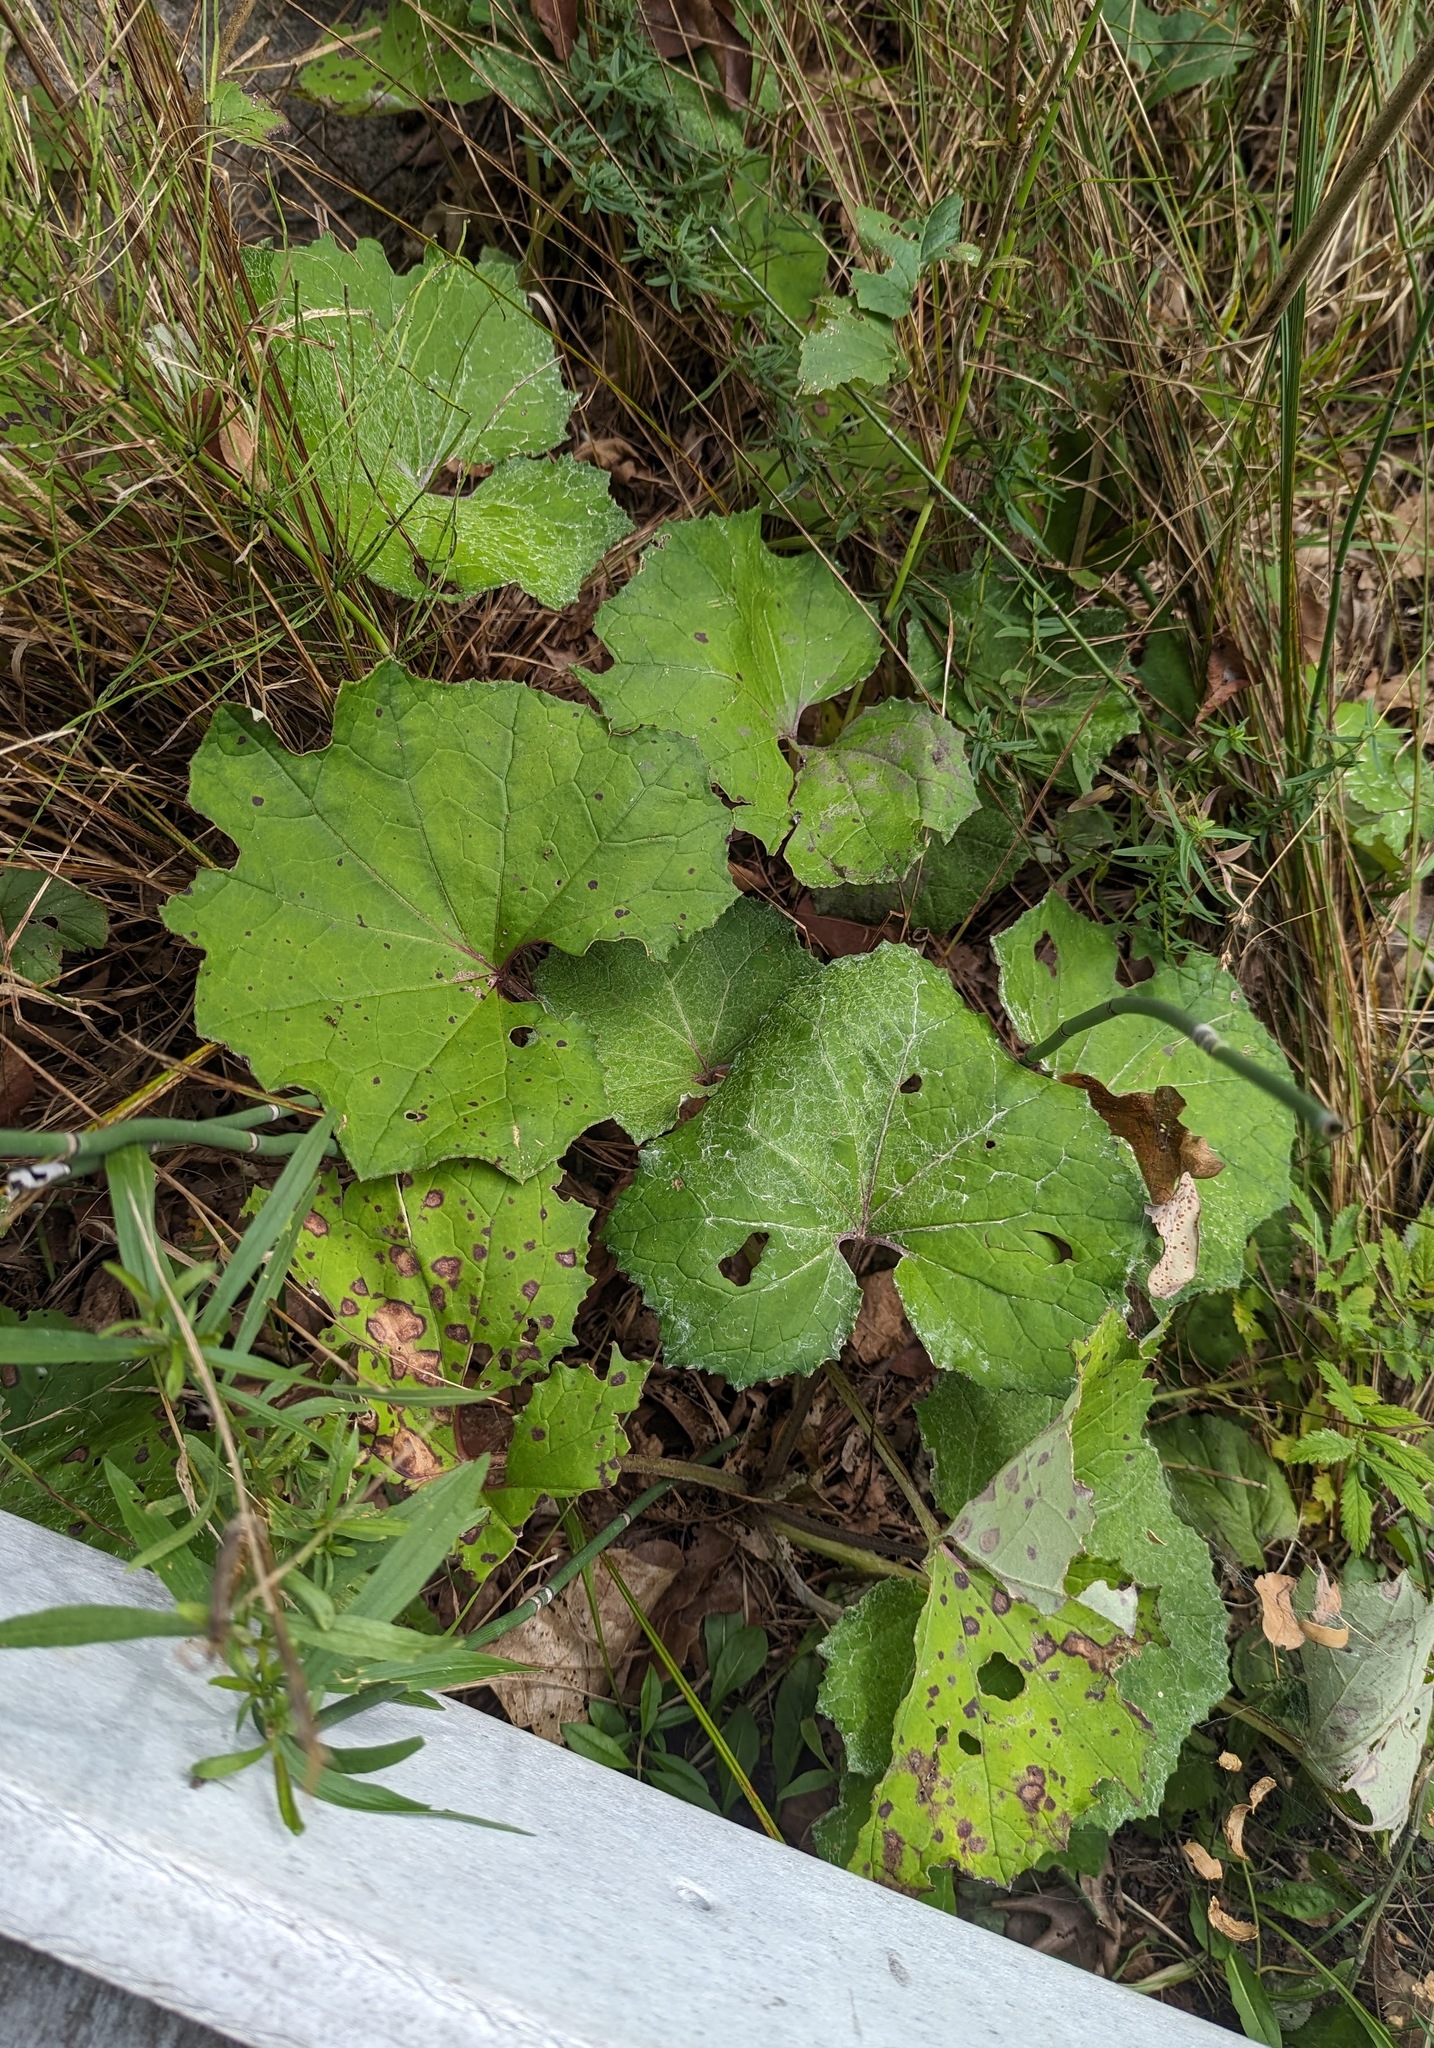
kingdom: Plantae
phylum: Tracheophyta
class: Magnoliopsida
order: Asterales
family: Asteraceae
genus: Tussilago
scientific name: Tussilago farfara
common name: Coltsfoot
